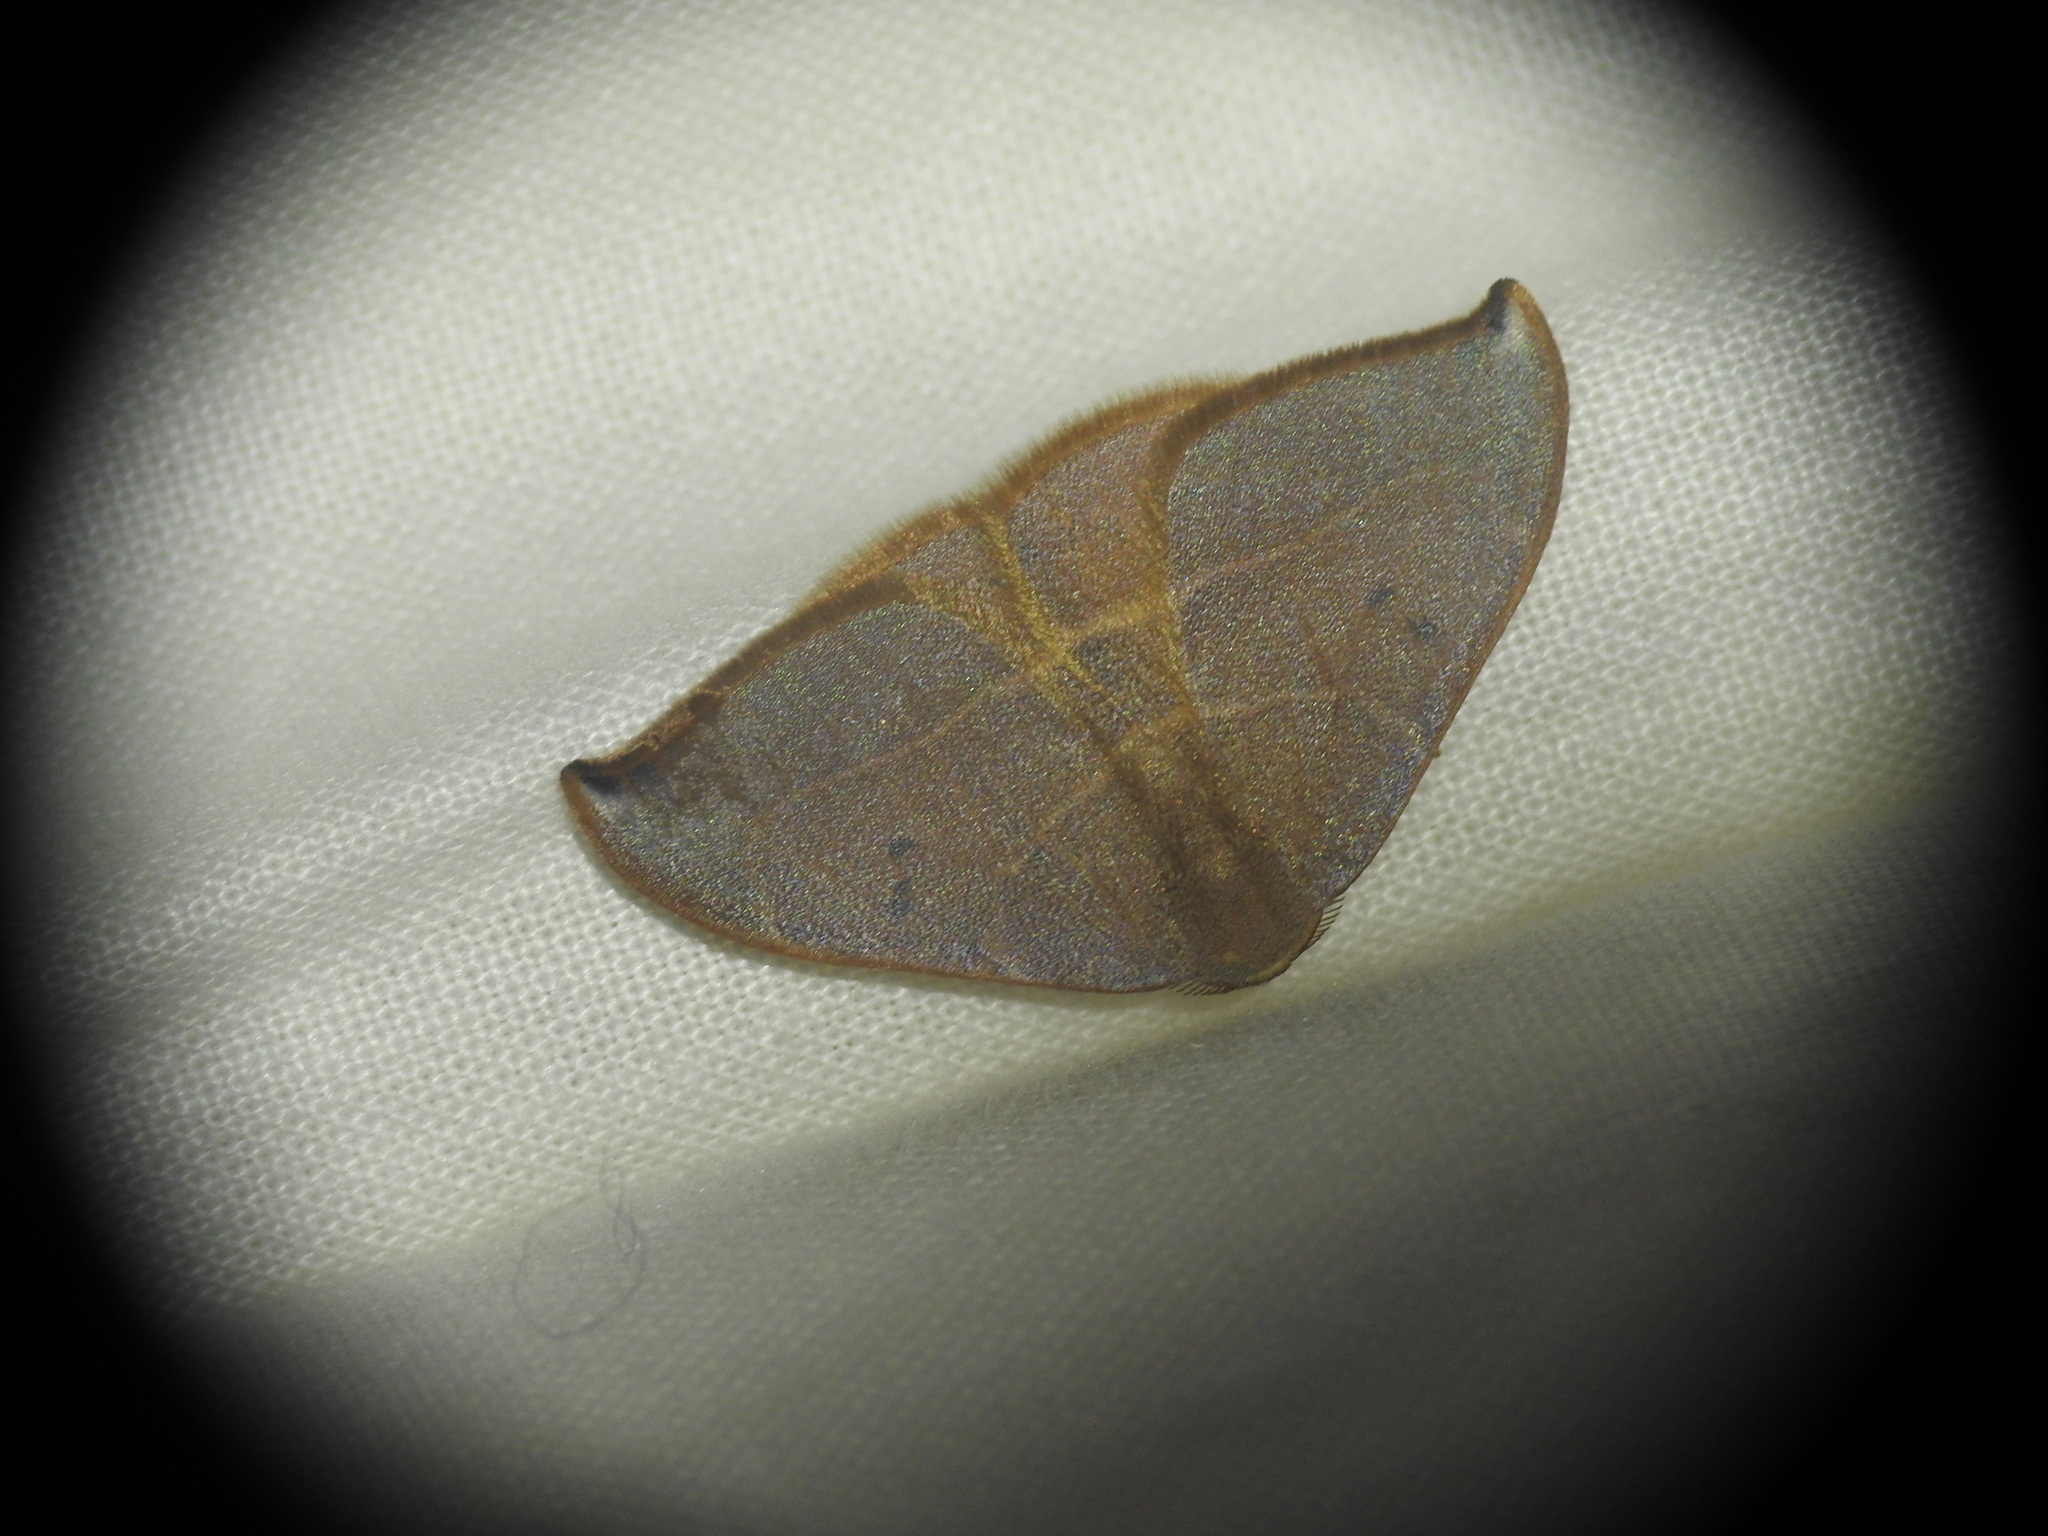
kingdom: Animalia
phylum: Arthropoda
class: Insecta
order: Lepidoptera
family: Drepanidae
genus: Watsonalla
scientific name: Watsonalla uncinula
